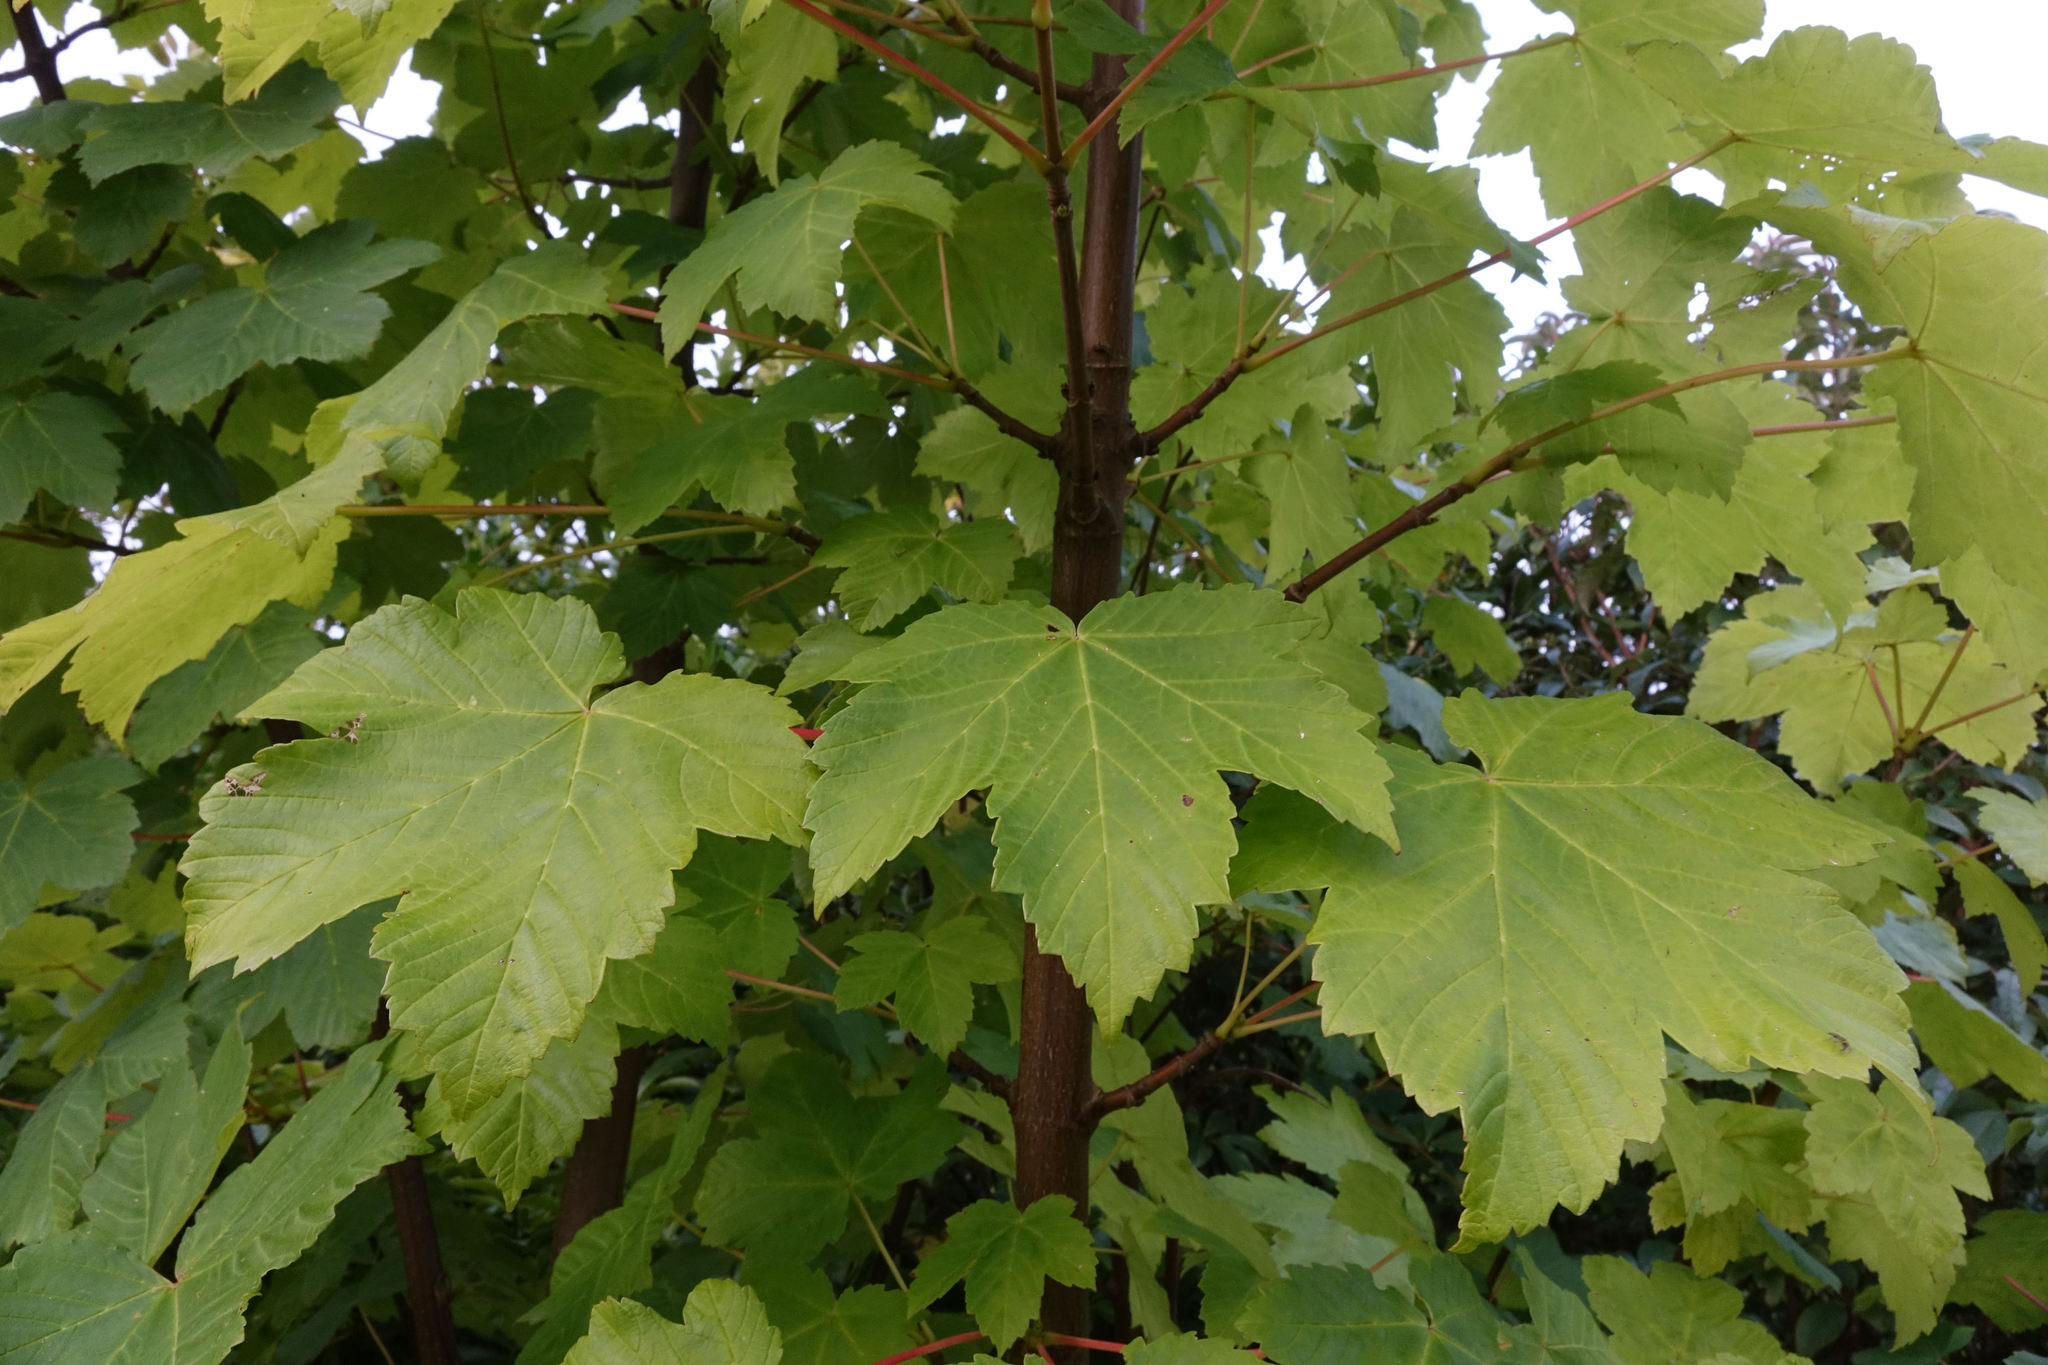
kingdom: Plantae
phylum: Tracheophyta
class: Magnoliopsida
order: Sapindales
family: Sapindaceae
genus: Acer
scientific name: Acer pseudoplatanus
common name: Sycamore
